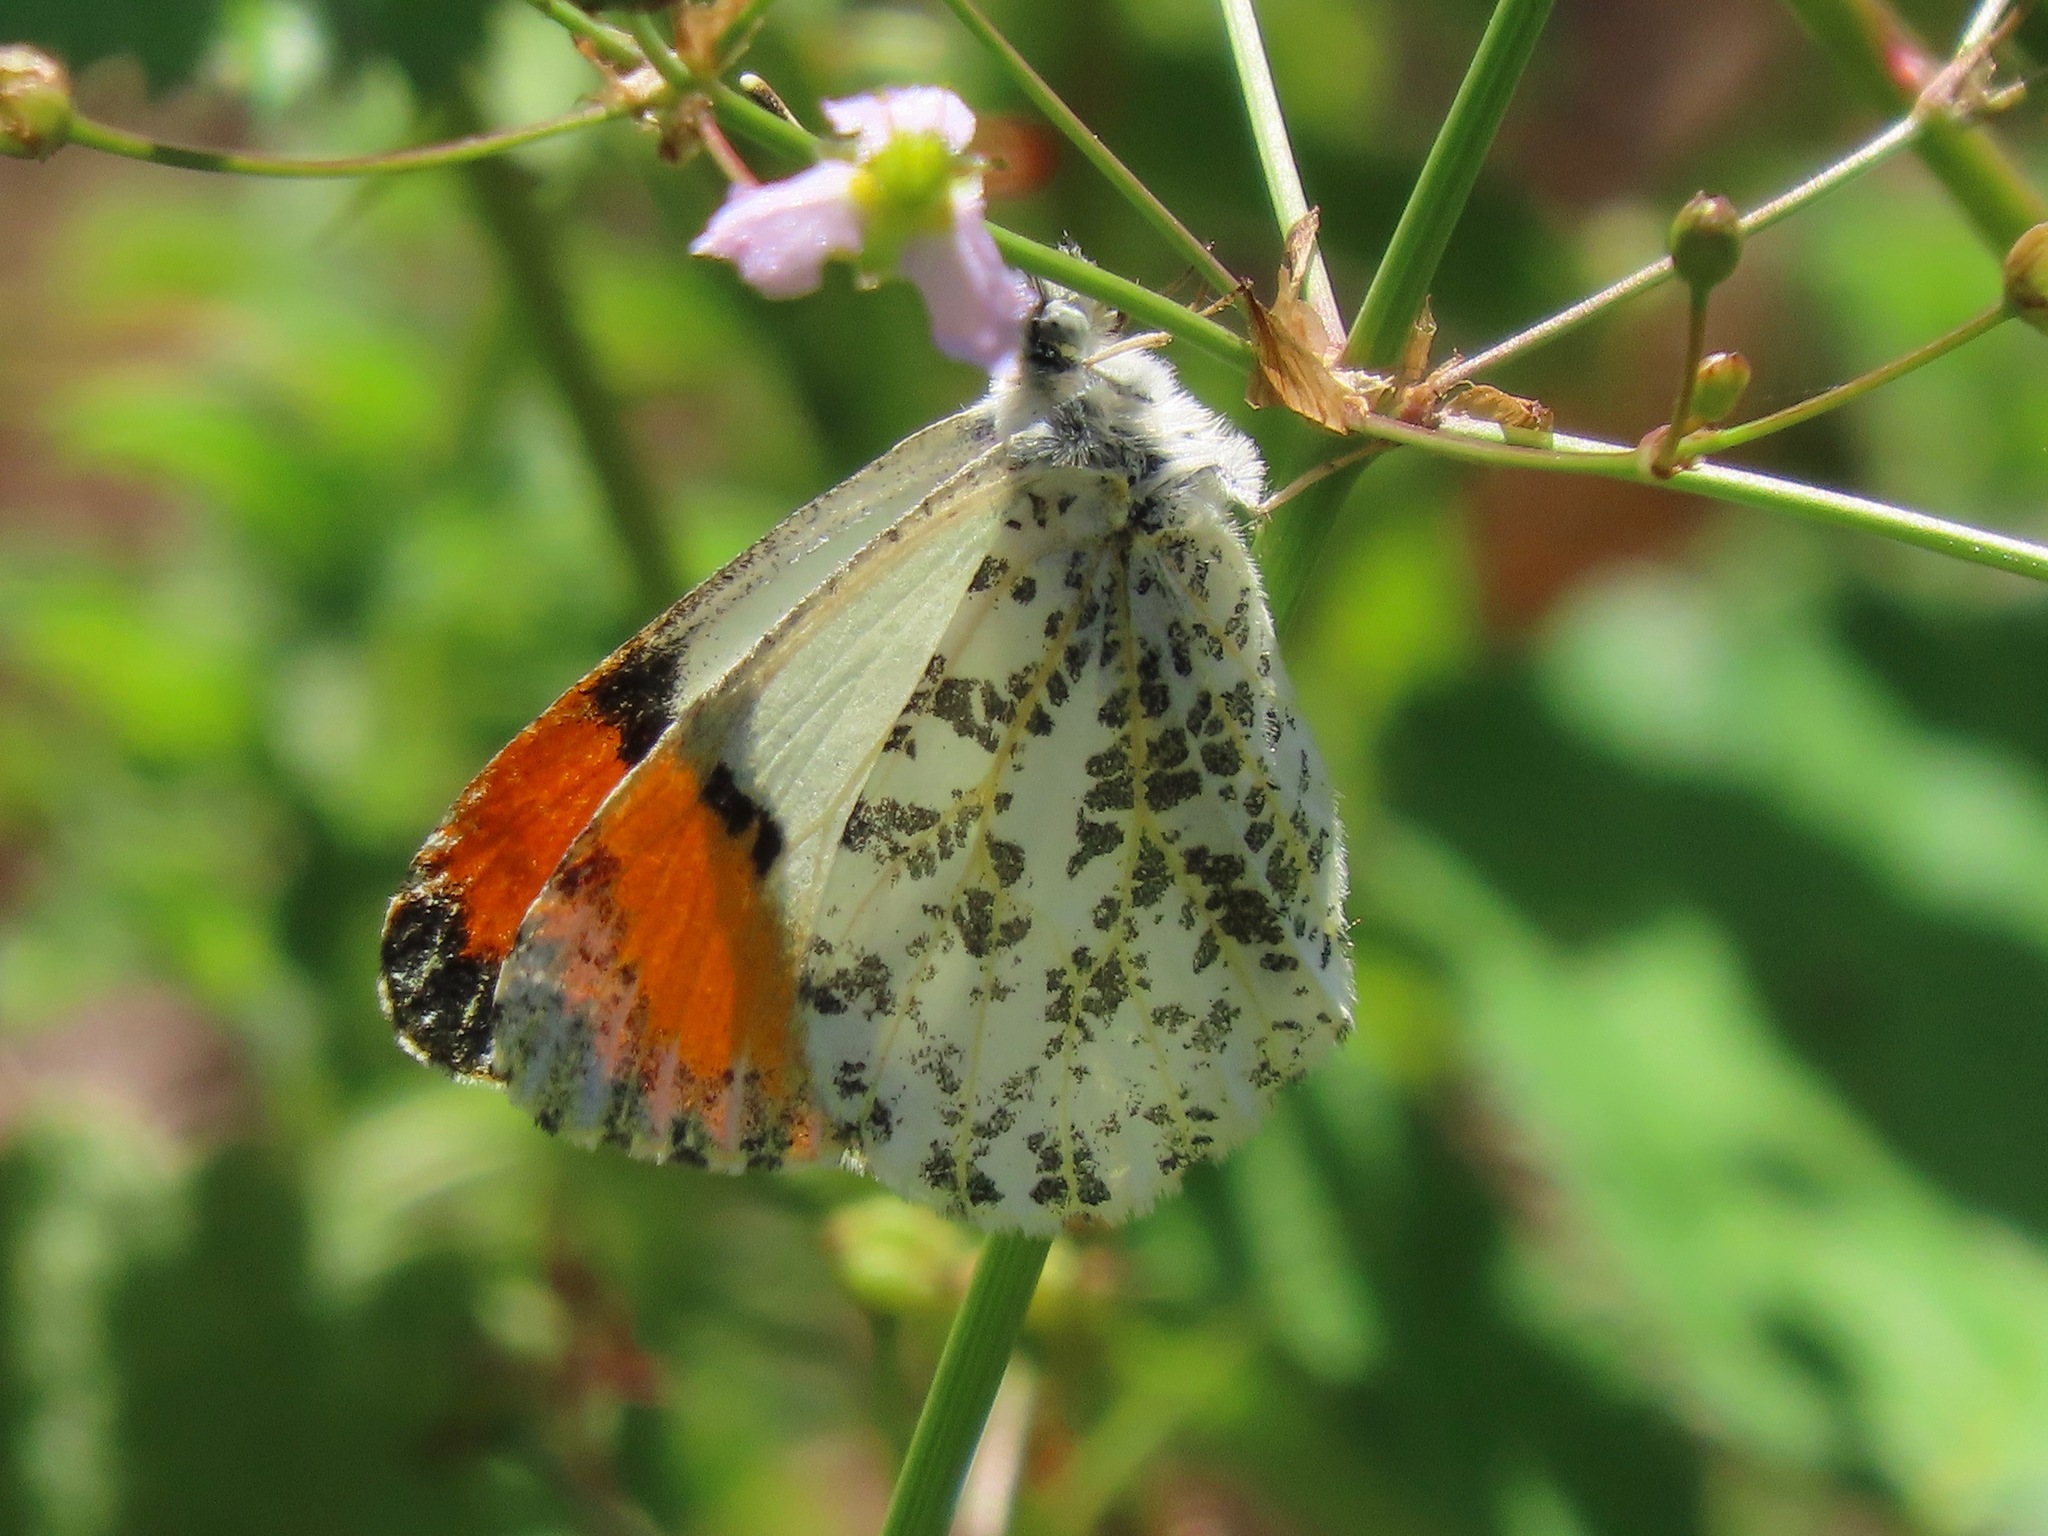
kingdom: Animalia
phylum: Arthropoda
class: Insecta
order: Lepidoptera
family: Pieridae
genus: Anthocharis
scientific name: Anthocharis sara
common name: Sara's orangetip
